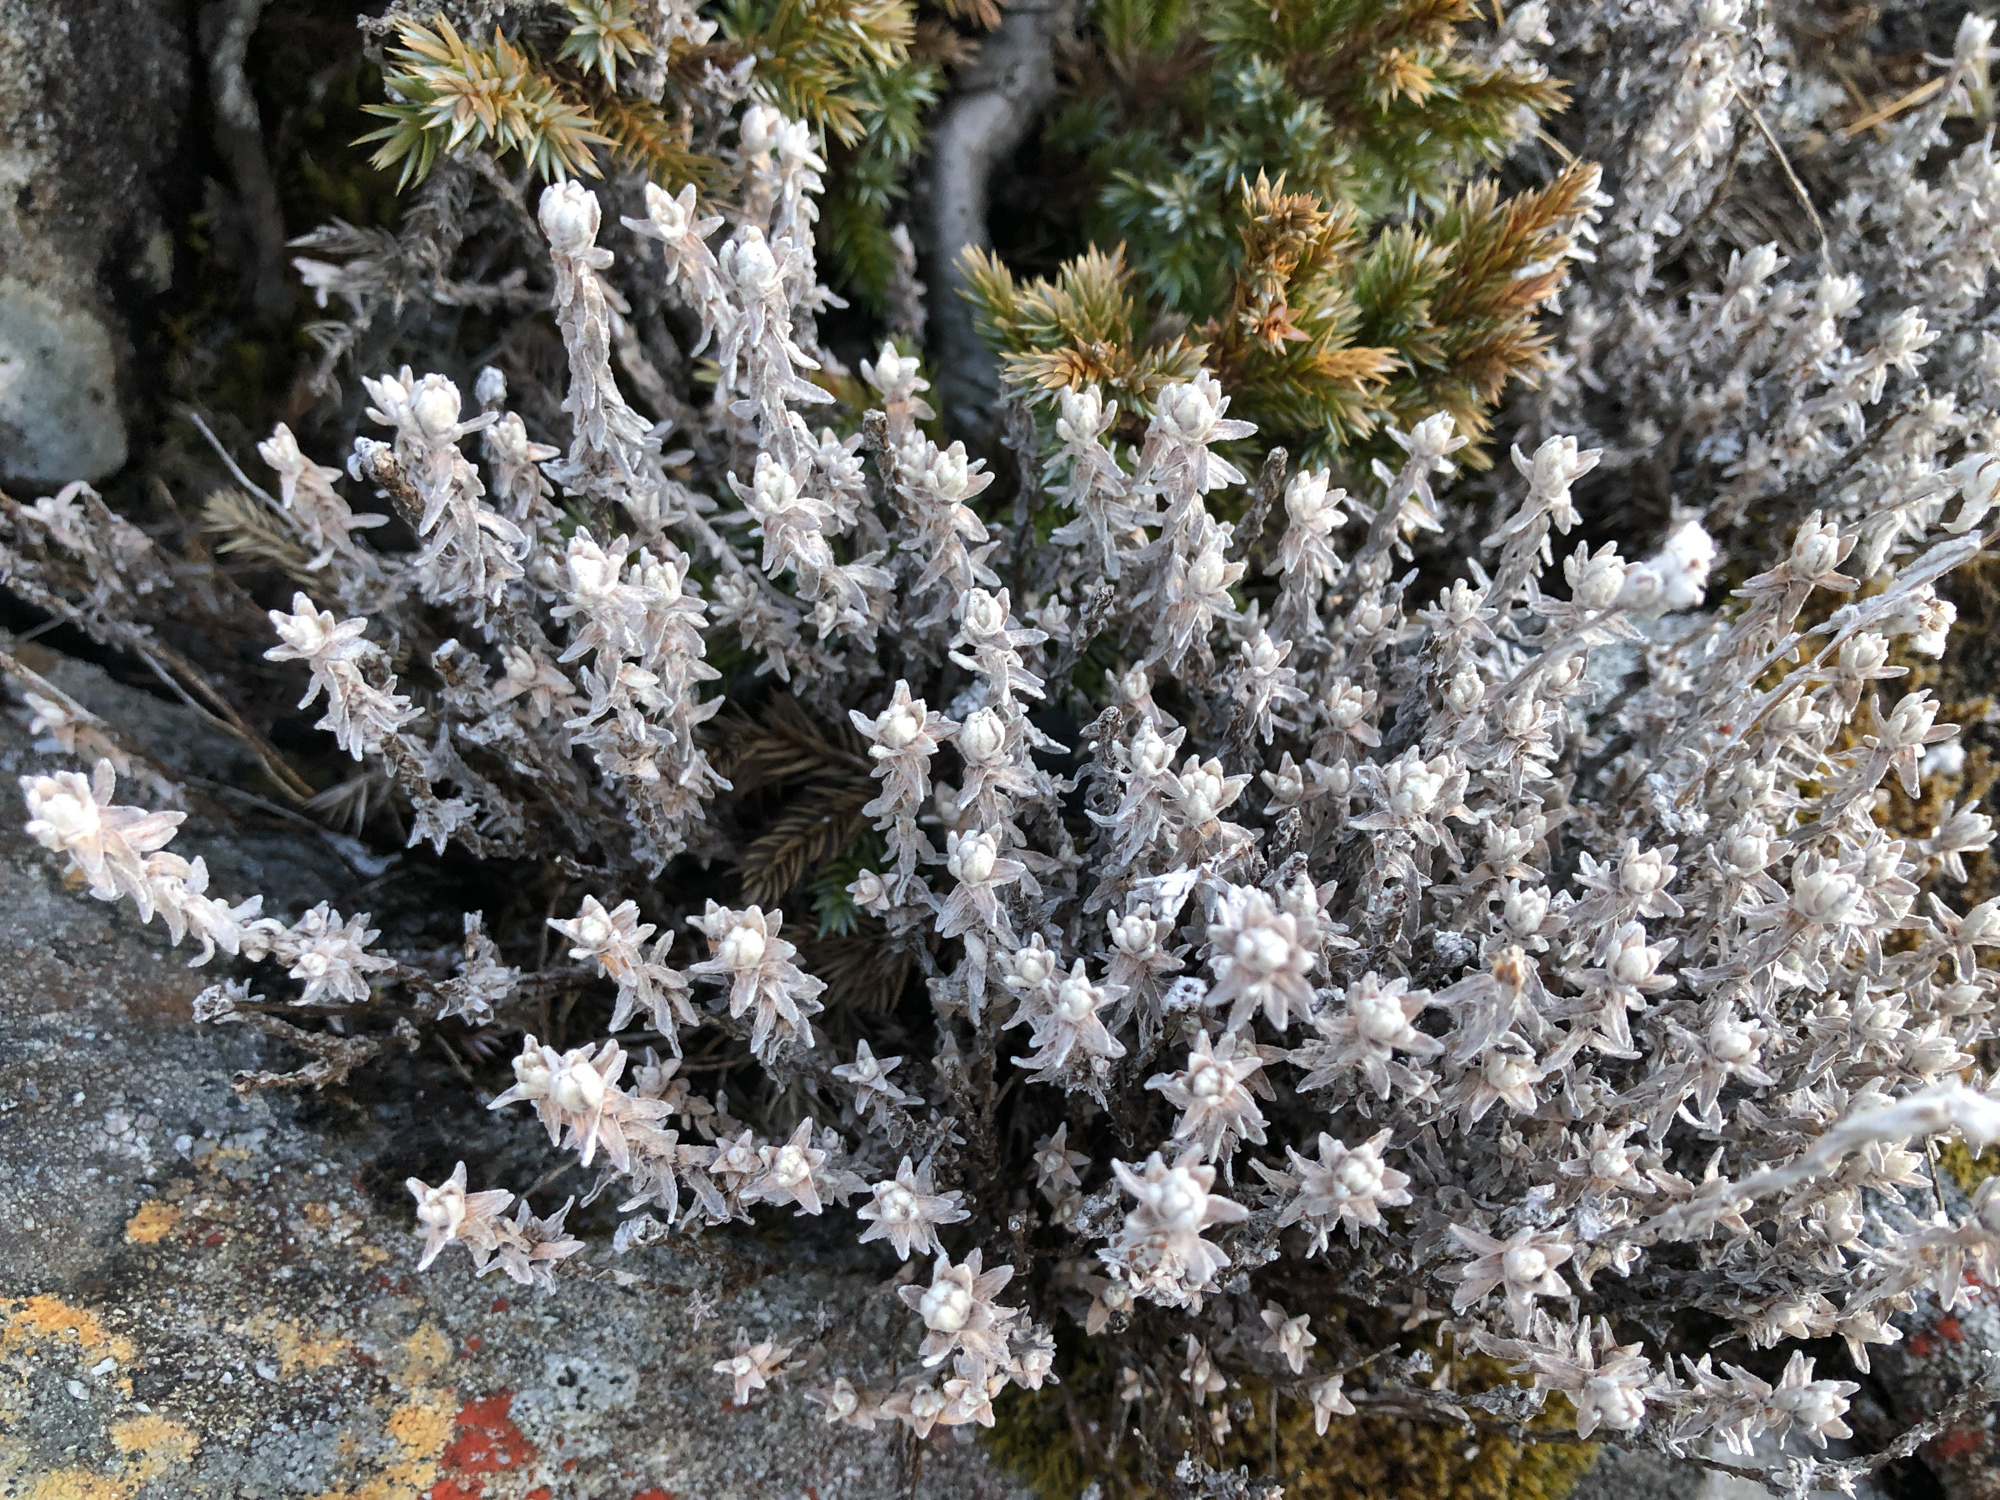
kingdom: Plantae
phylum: Tracheophyta
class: Magnoliopsida
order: Asterales
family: Asteraceae
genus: Anaphalis
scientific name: Anaphalis morrisonicola
